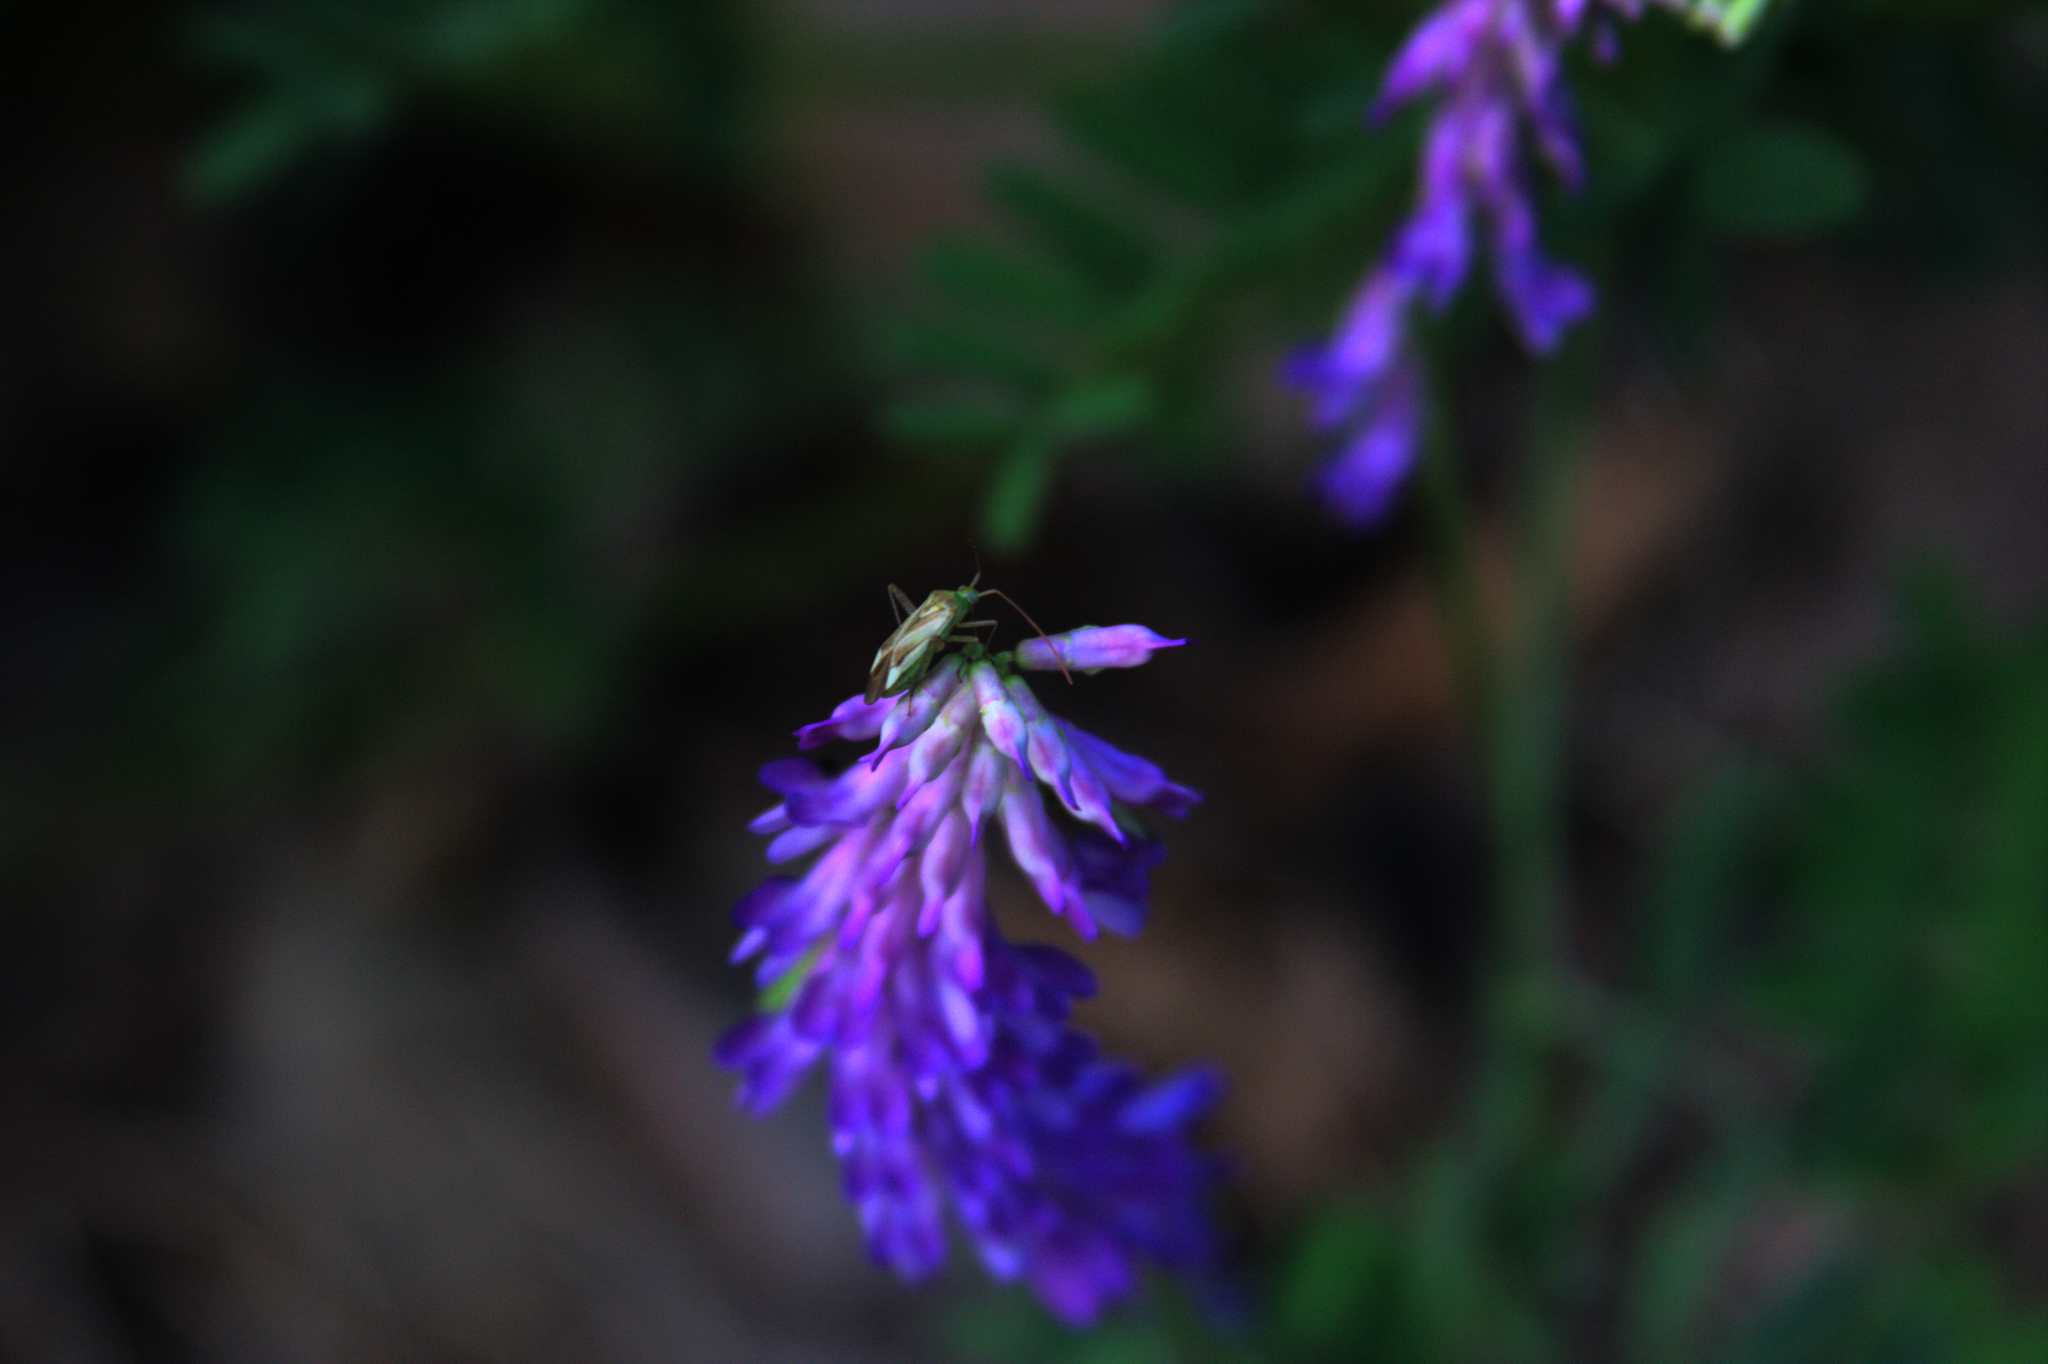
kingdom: Plantae
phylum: Tracheophyta
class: Magnoliopsida
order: Fabales
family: Fabaceae
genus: Vicia
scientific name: Vicia cracca
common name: Bird vetch
